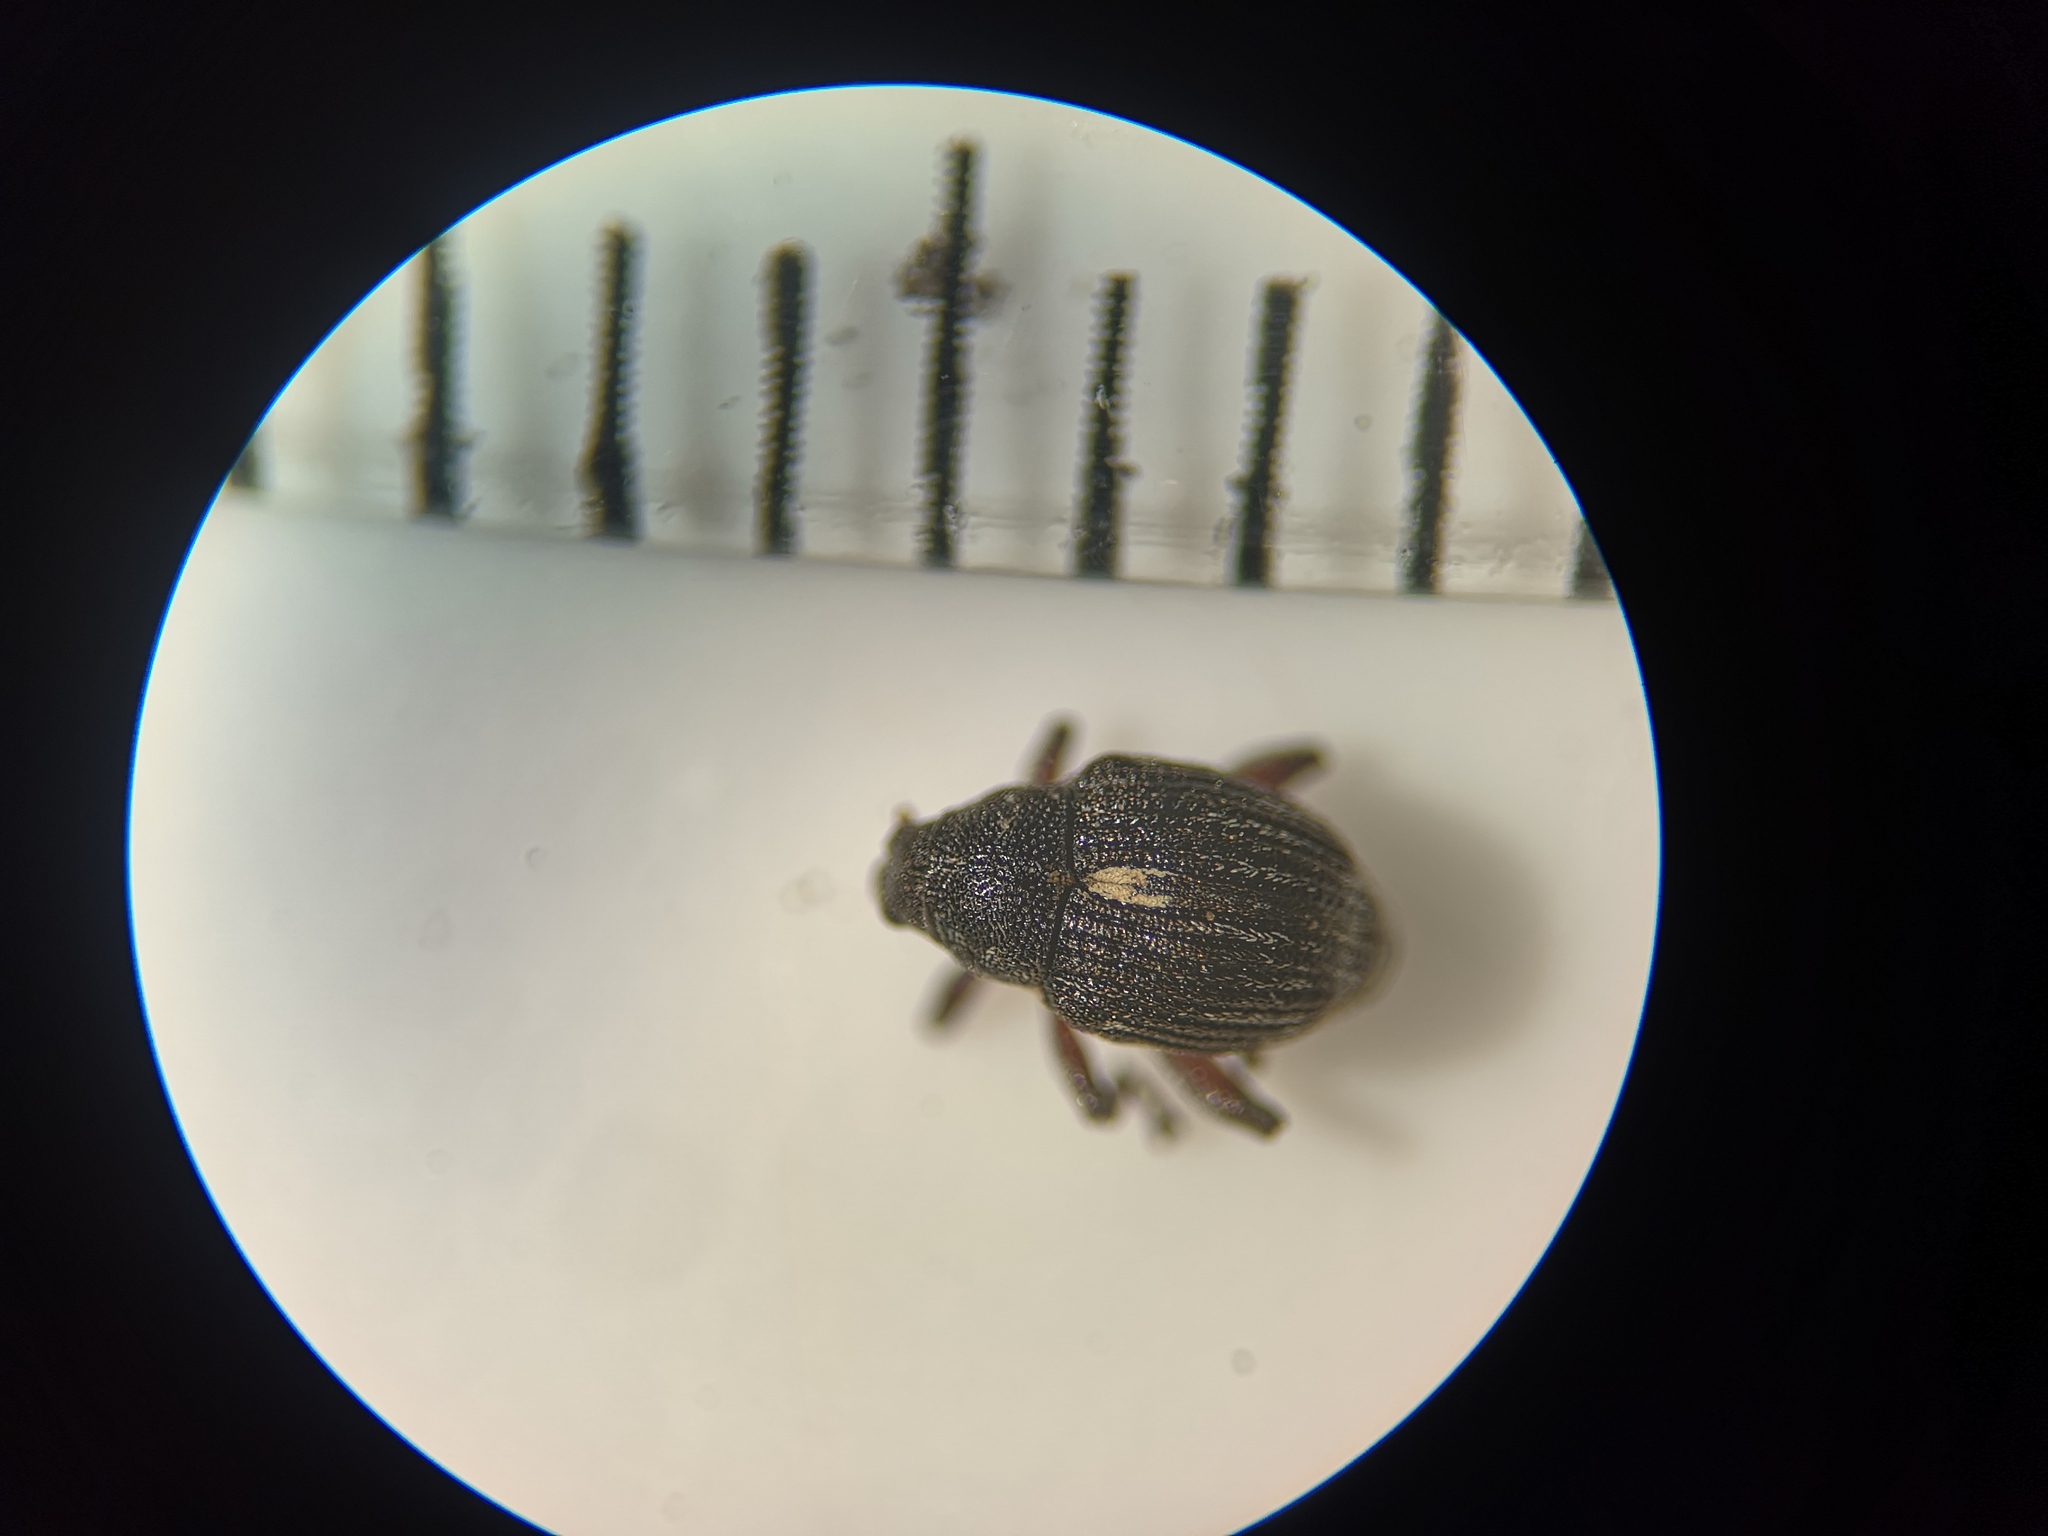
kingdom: Animalia
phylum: Arthropoda
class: Insecta
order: Coleoptera
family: Curculionidae
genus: Rhinoncus
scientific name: Rhinoncus leucostigma
